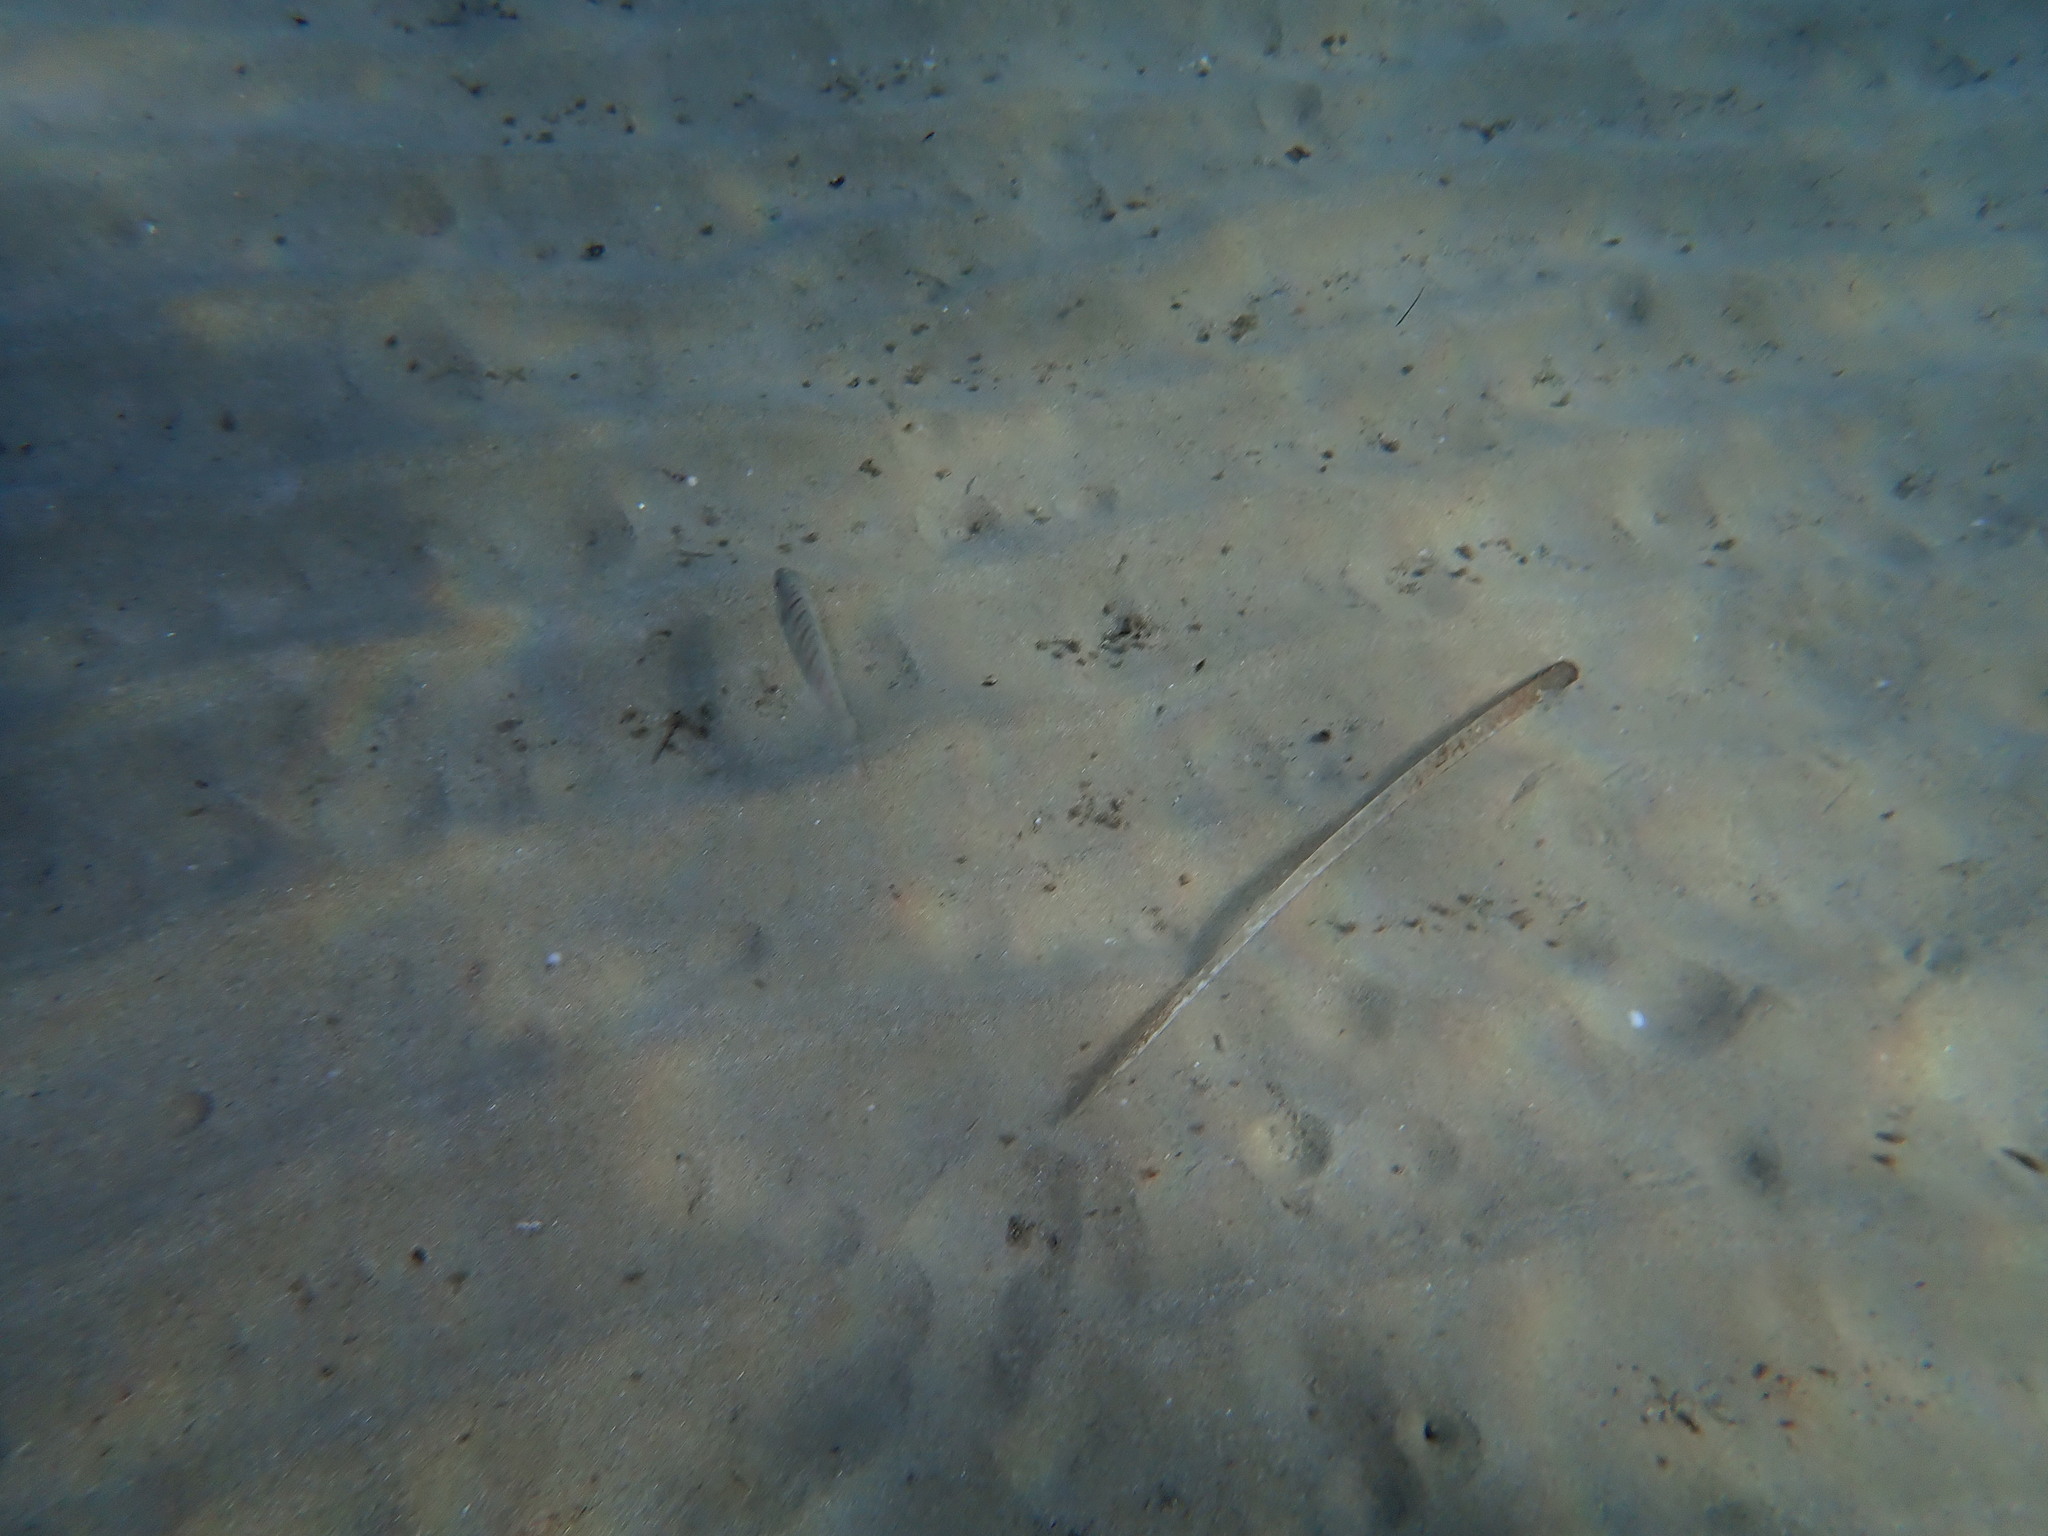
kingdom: Animalia
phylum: Chordata
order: Perciformes
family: Sparidae
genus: Lithognathus
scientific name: Lithognathus mormyrus
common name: Sand steenbras
